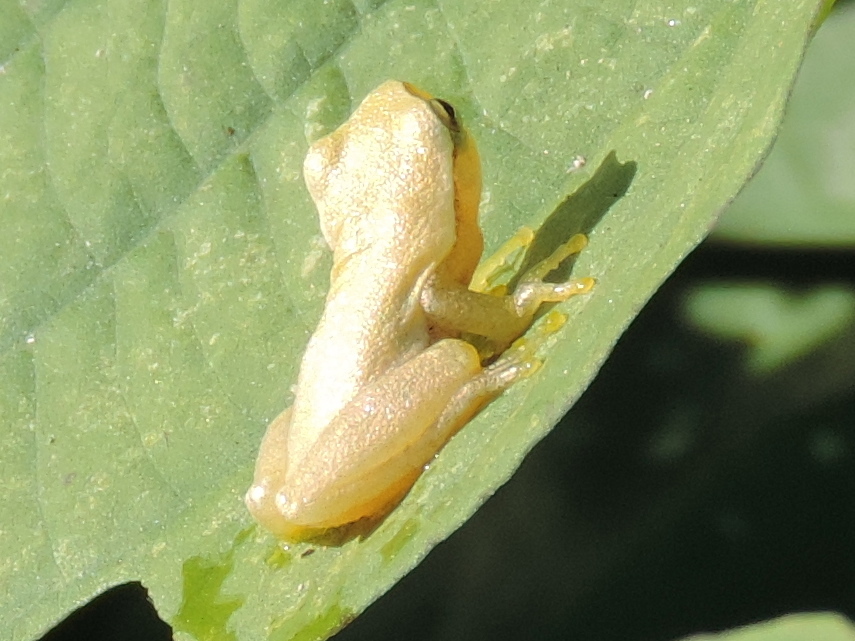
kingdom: Animalia
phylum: Chordata
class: Amphibia
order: Anura
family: Hylidae
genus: Tlalocohyla
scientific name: Tlalocohyla smithii
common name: Dwarf mexican treefrog
